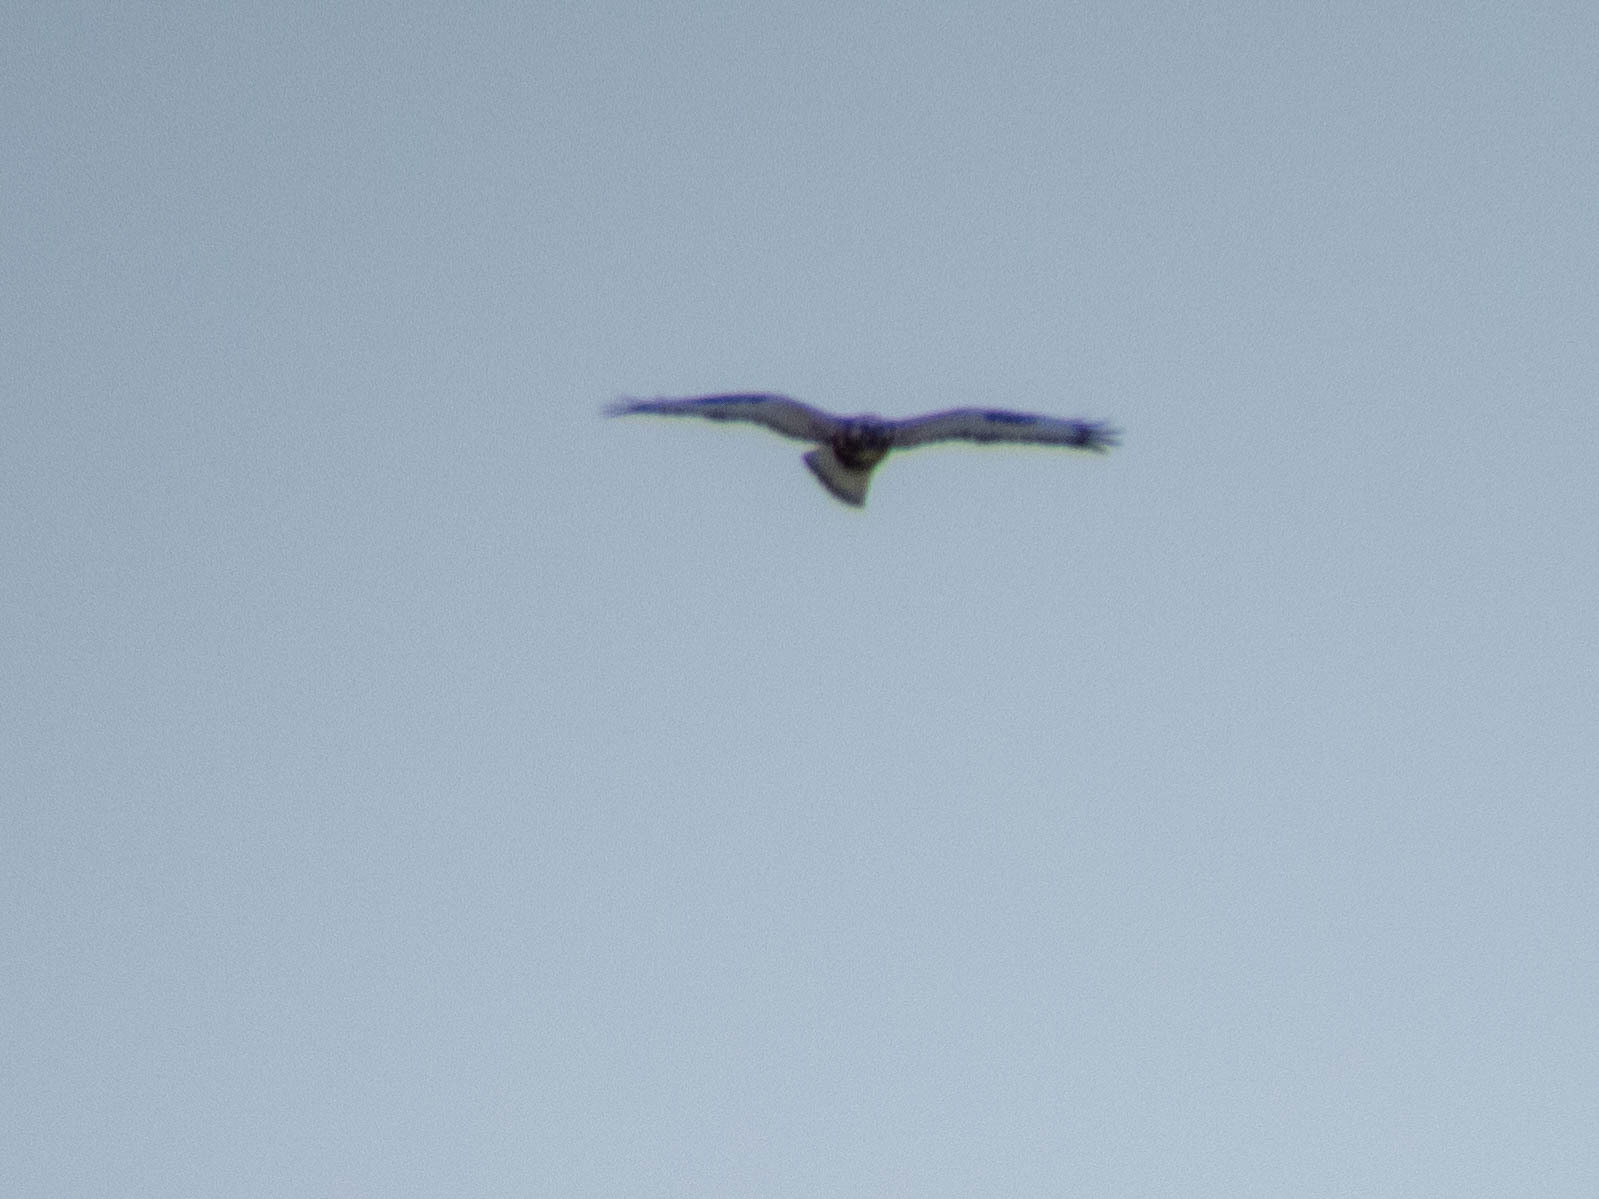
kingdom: Animalia
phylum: Chordata
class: Aves
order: Accipitriformes
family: Accipitridae
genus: Buteo
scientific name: Buteo lagopus
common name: Rough-legged buzzard
